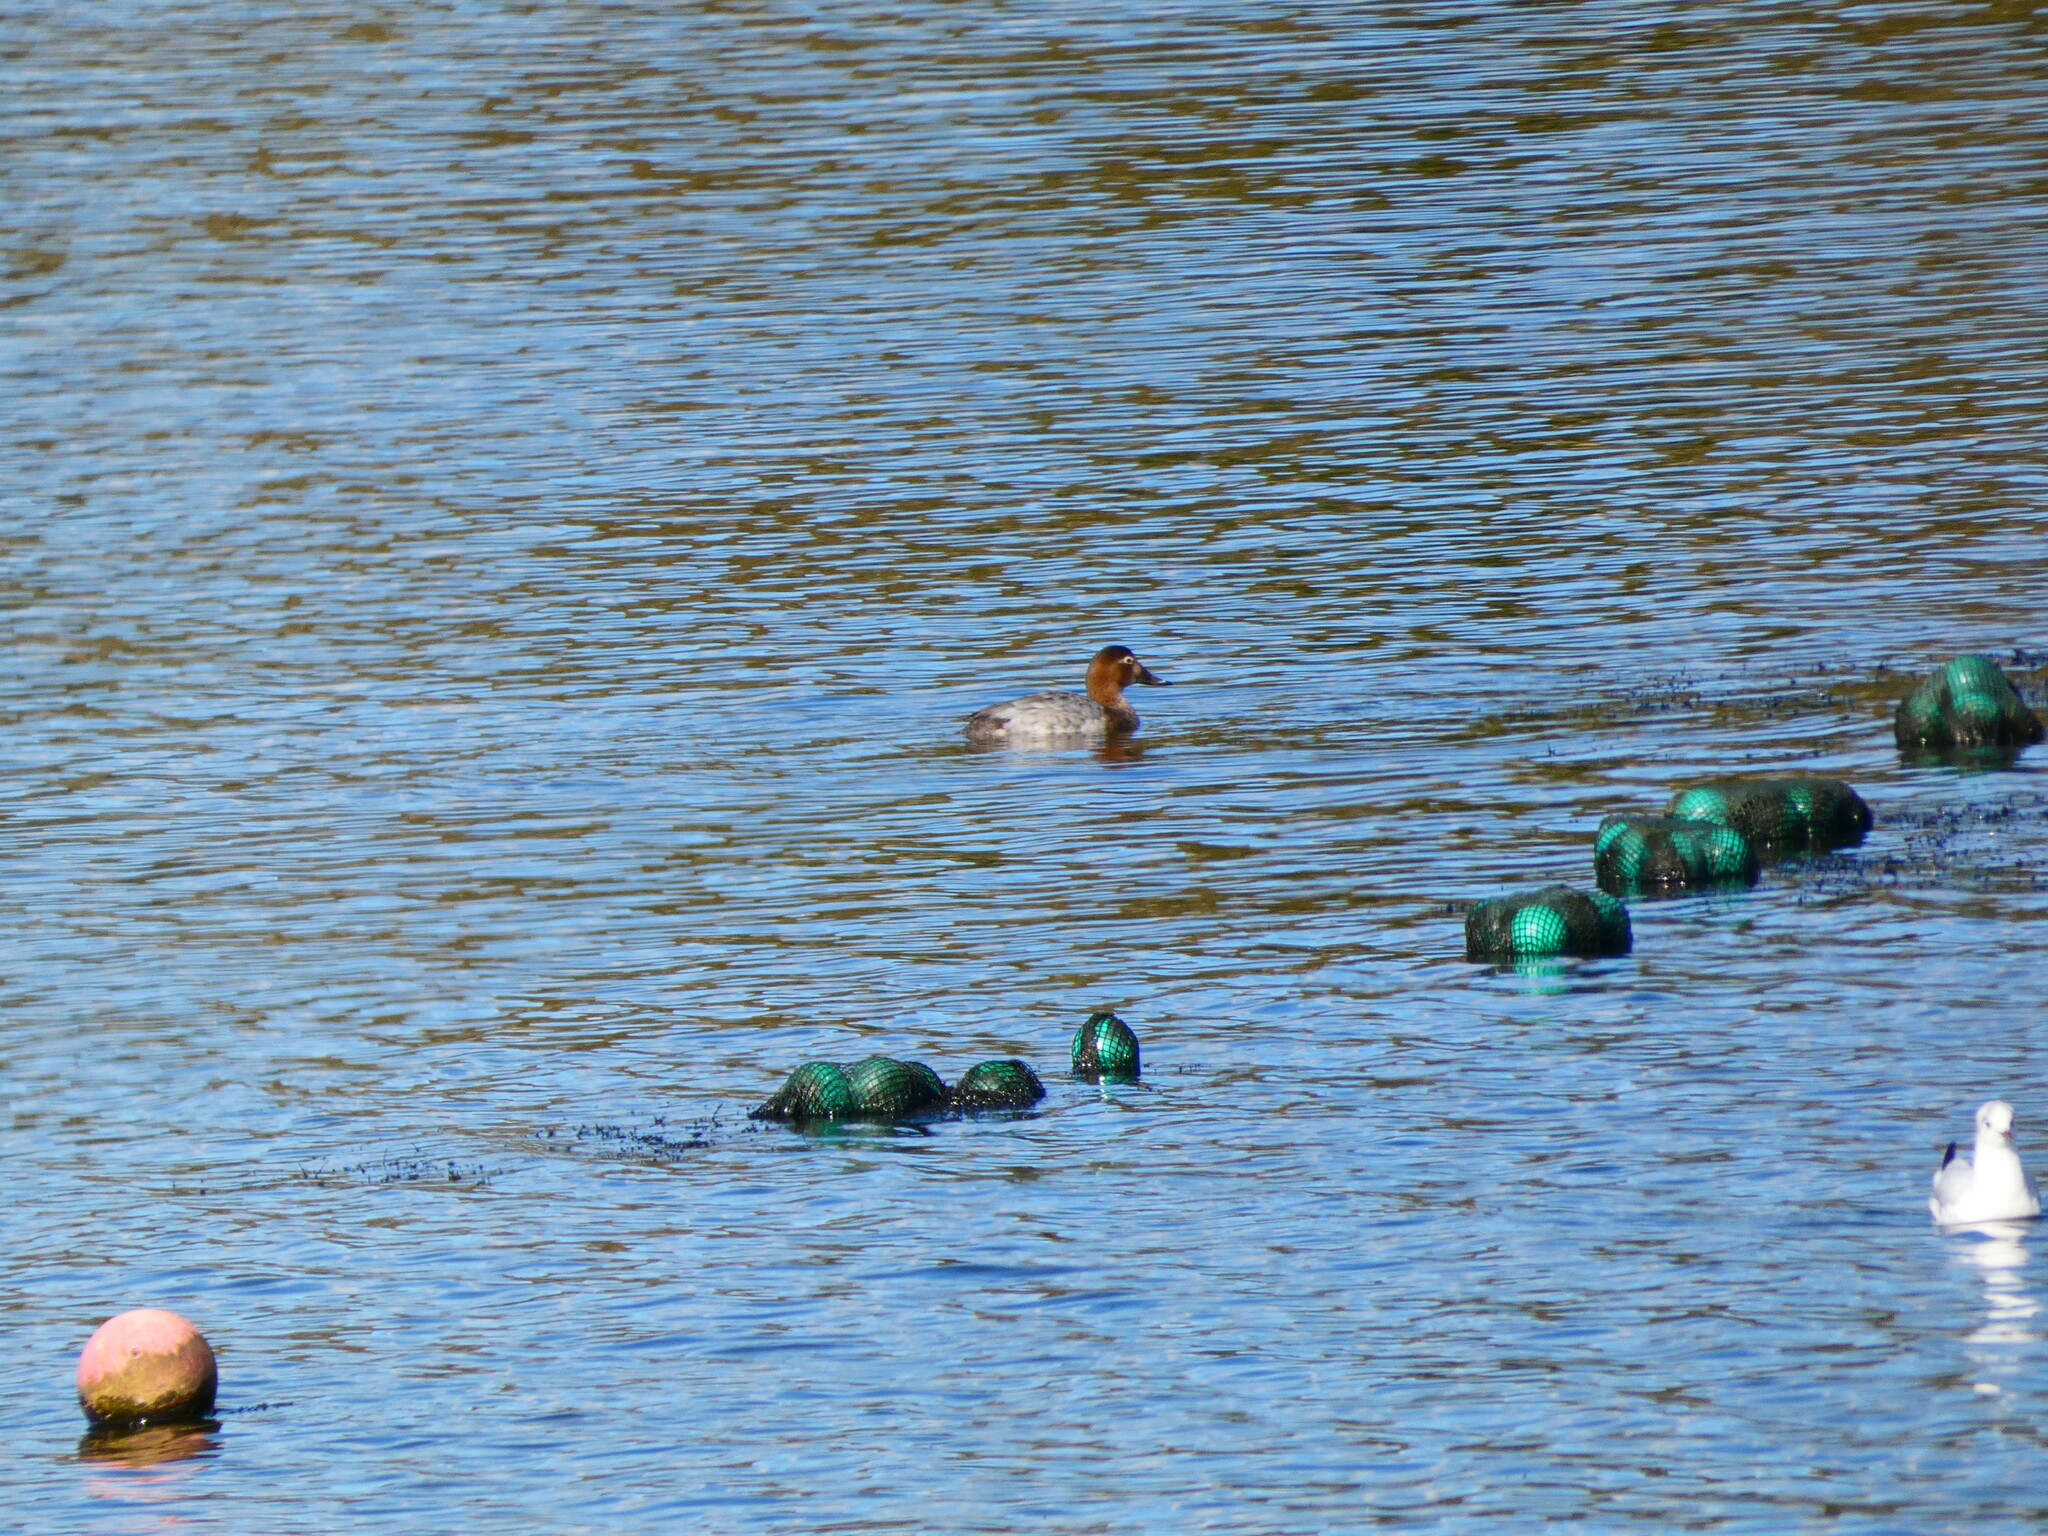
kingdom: Animalia
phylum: Chordata
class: Aves
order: Anseriformes
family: Anatidae
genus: Aythya
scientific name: Aythya ferina
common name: Common pochard
